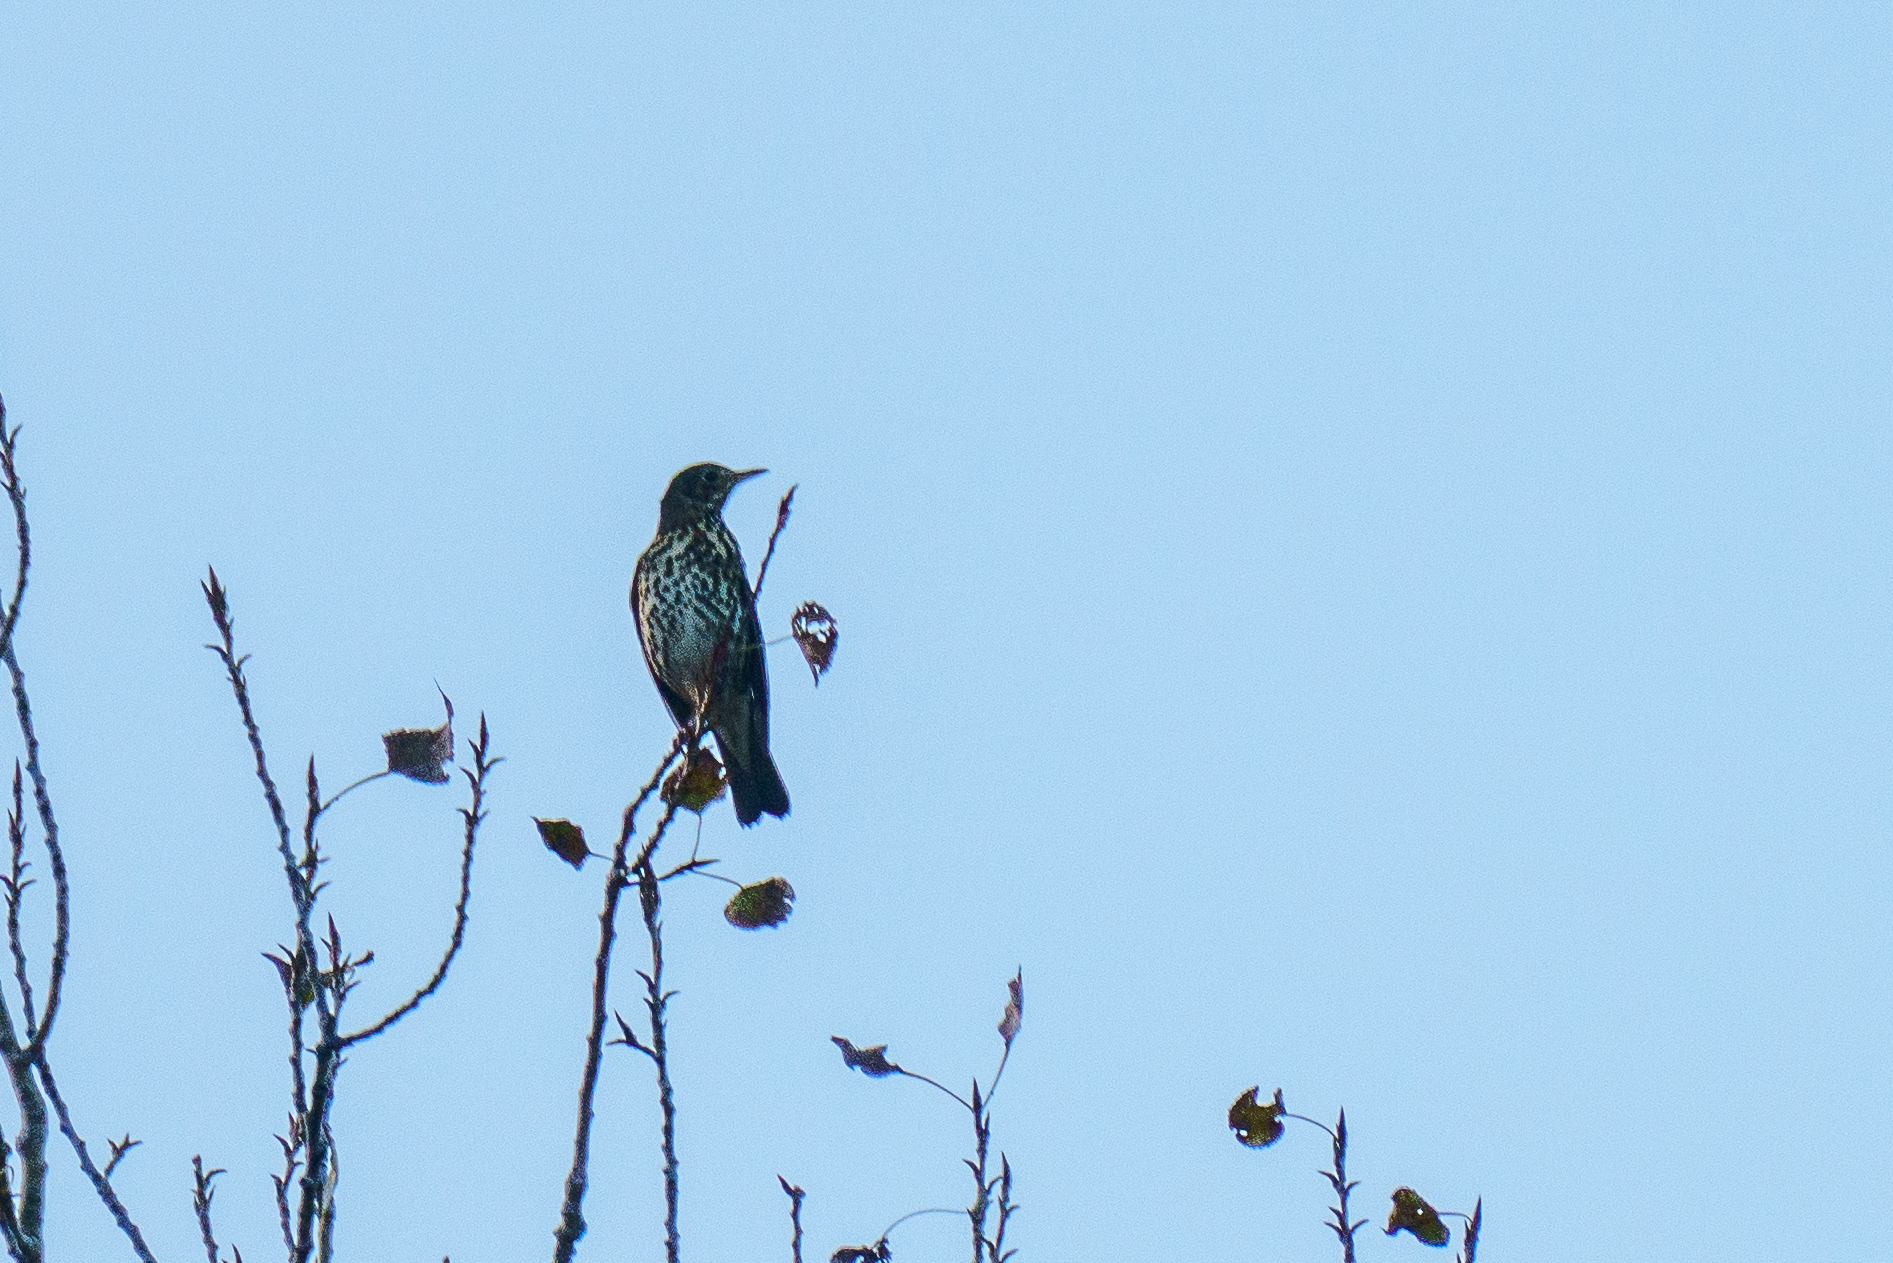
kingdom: Animalia
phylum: Chordata
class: Aves
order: Passeriformes
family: Turdidae
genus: Turdus
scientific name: Turdus philomelos
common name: Song thrush
